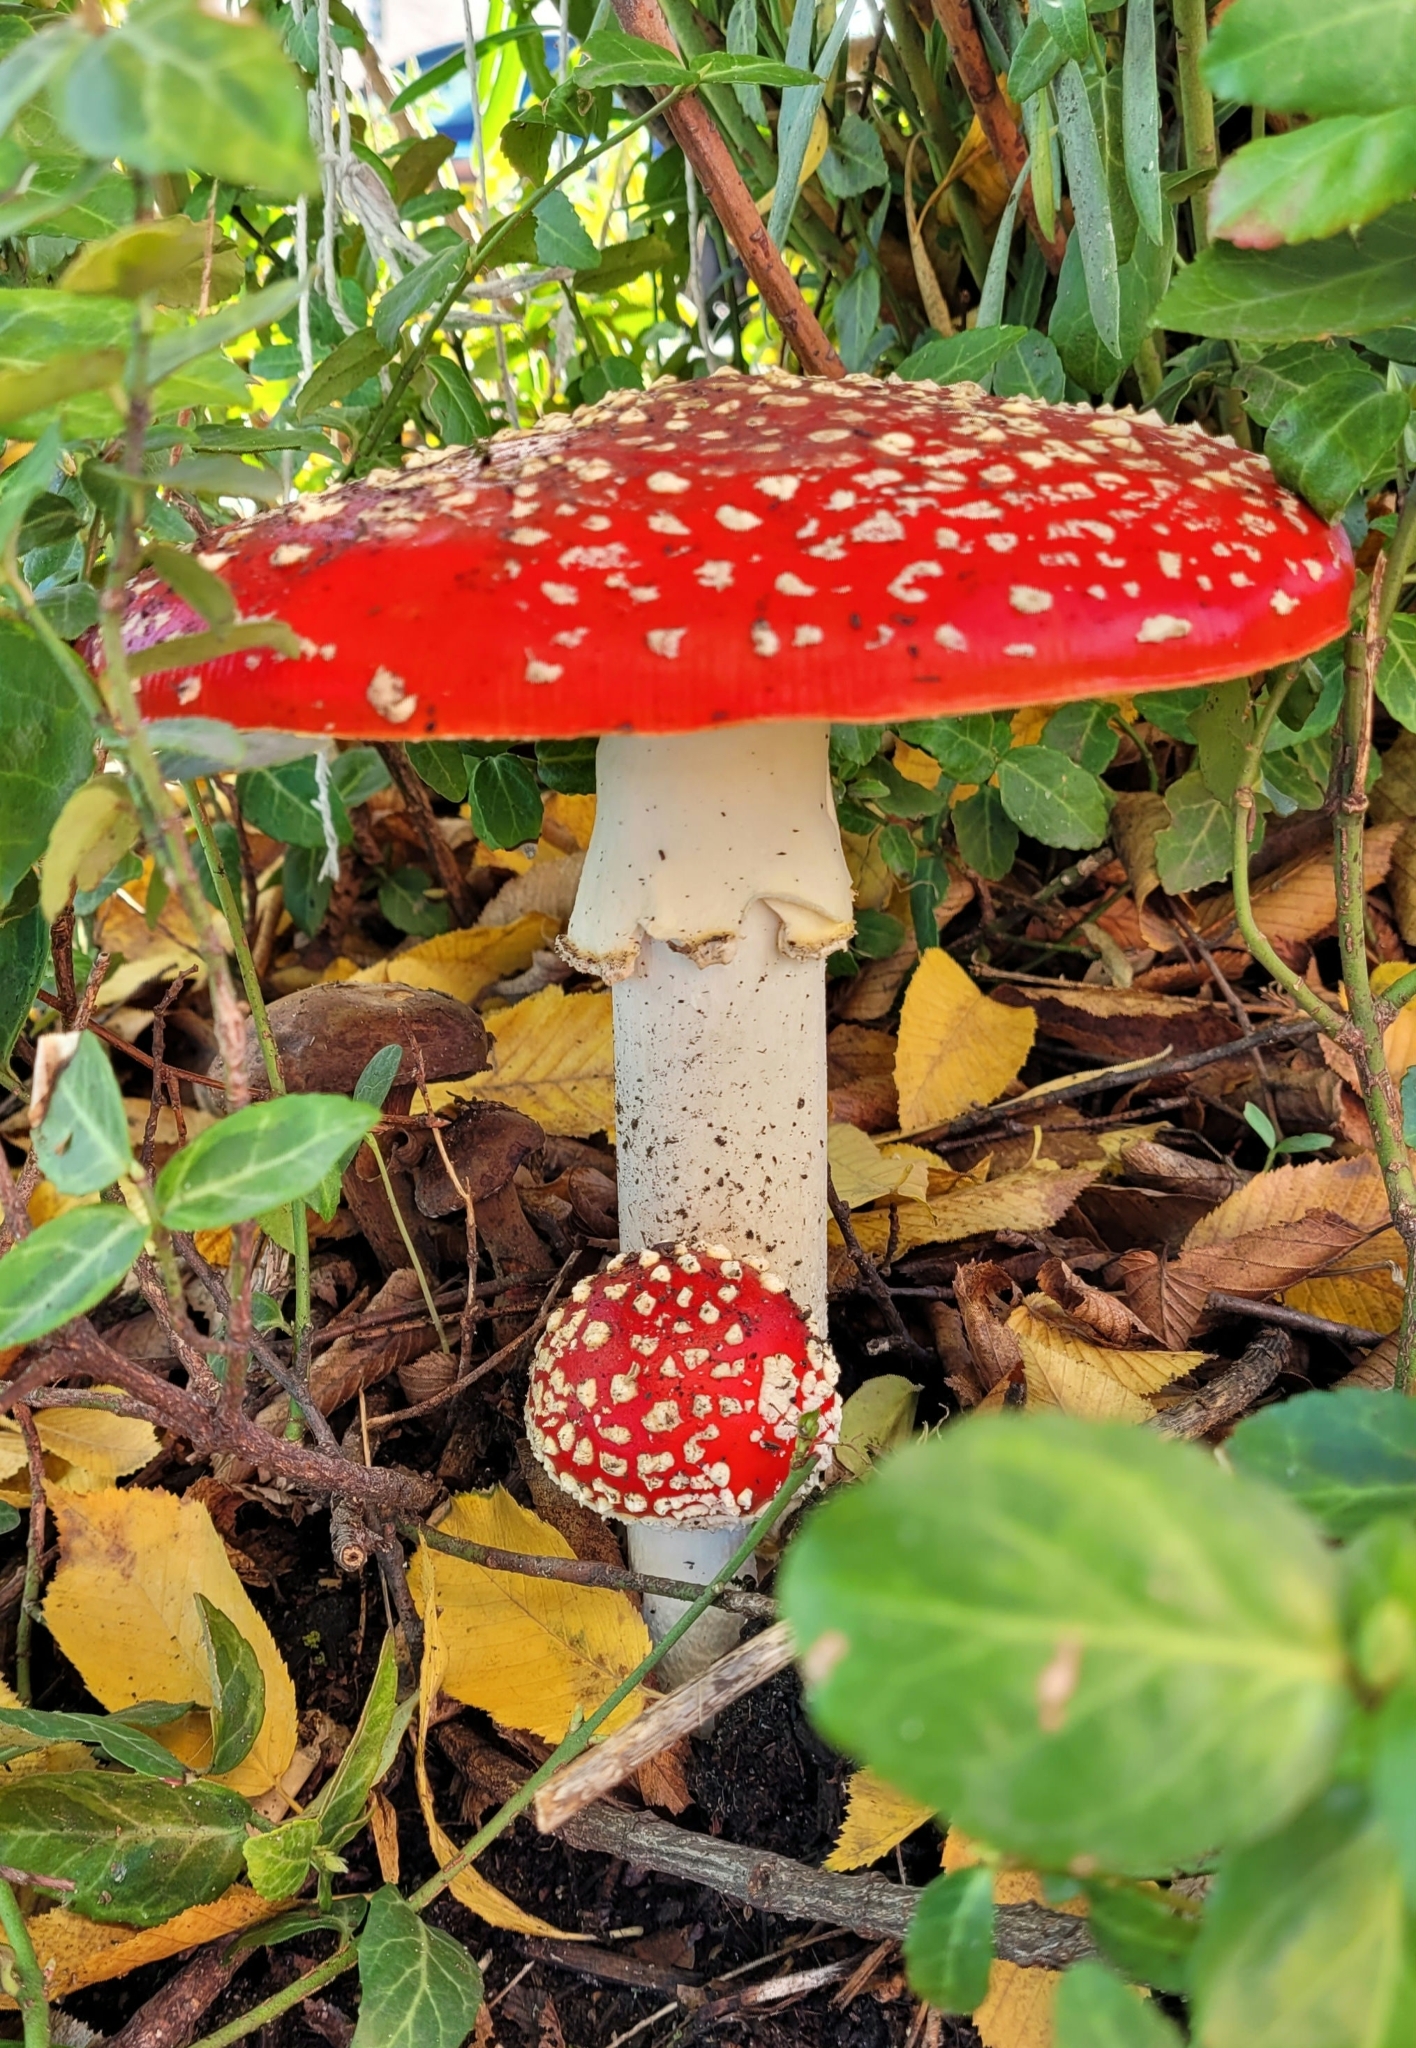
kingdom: Fungi
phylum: Basidiomycota
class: Agaricomycetes
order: Agaricales
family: Amanitaceae
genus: Amanita
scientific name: Amanita muscaria
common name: Fly agaric
